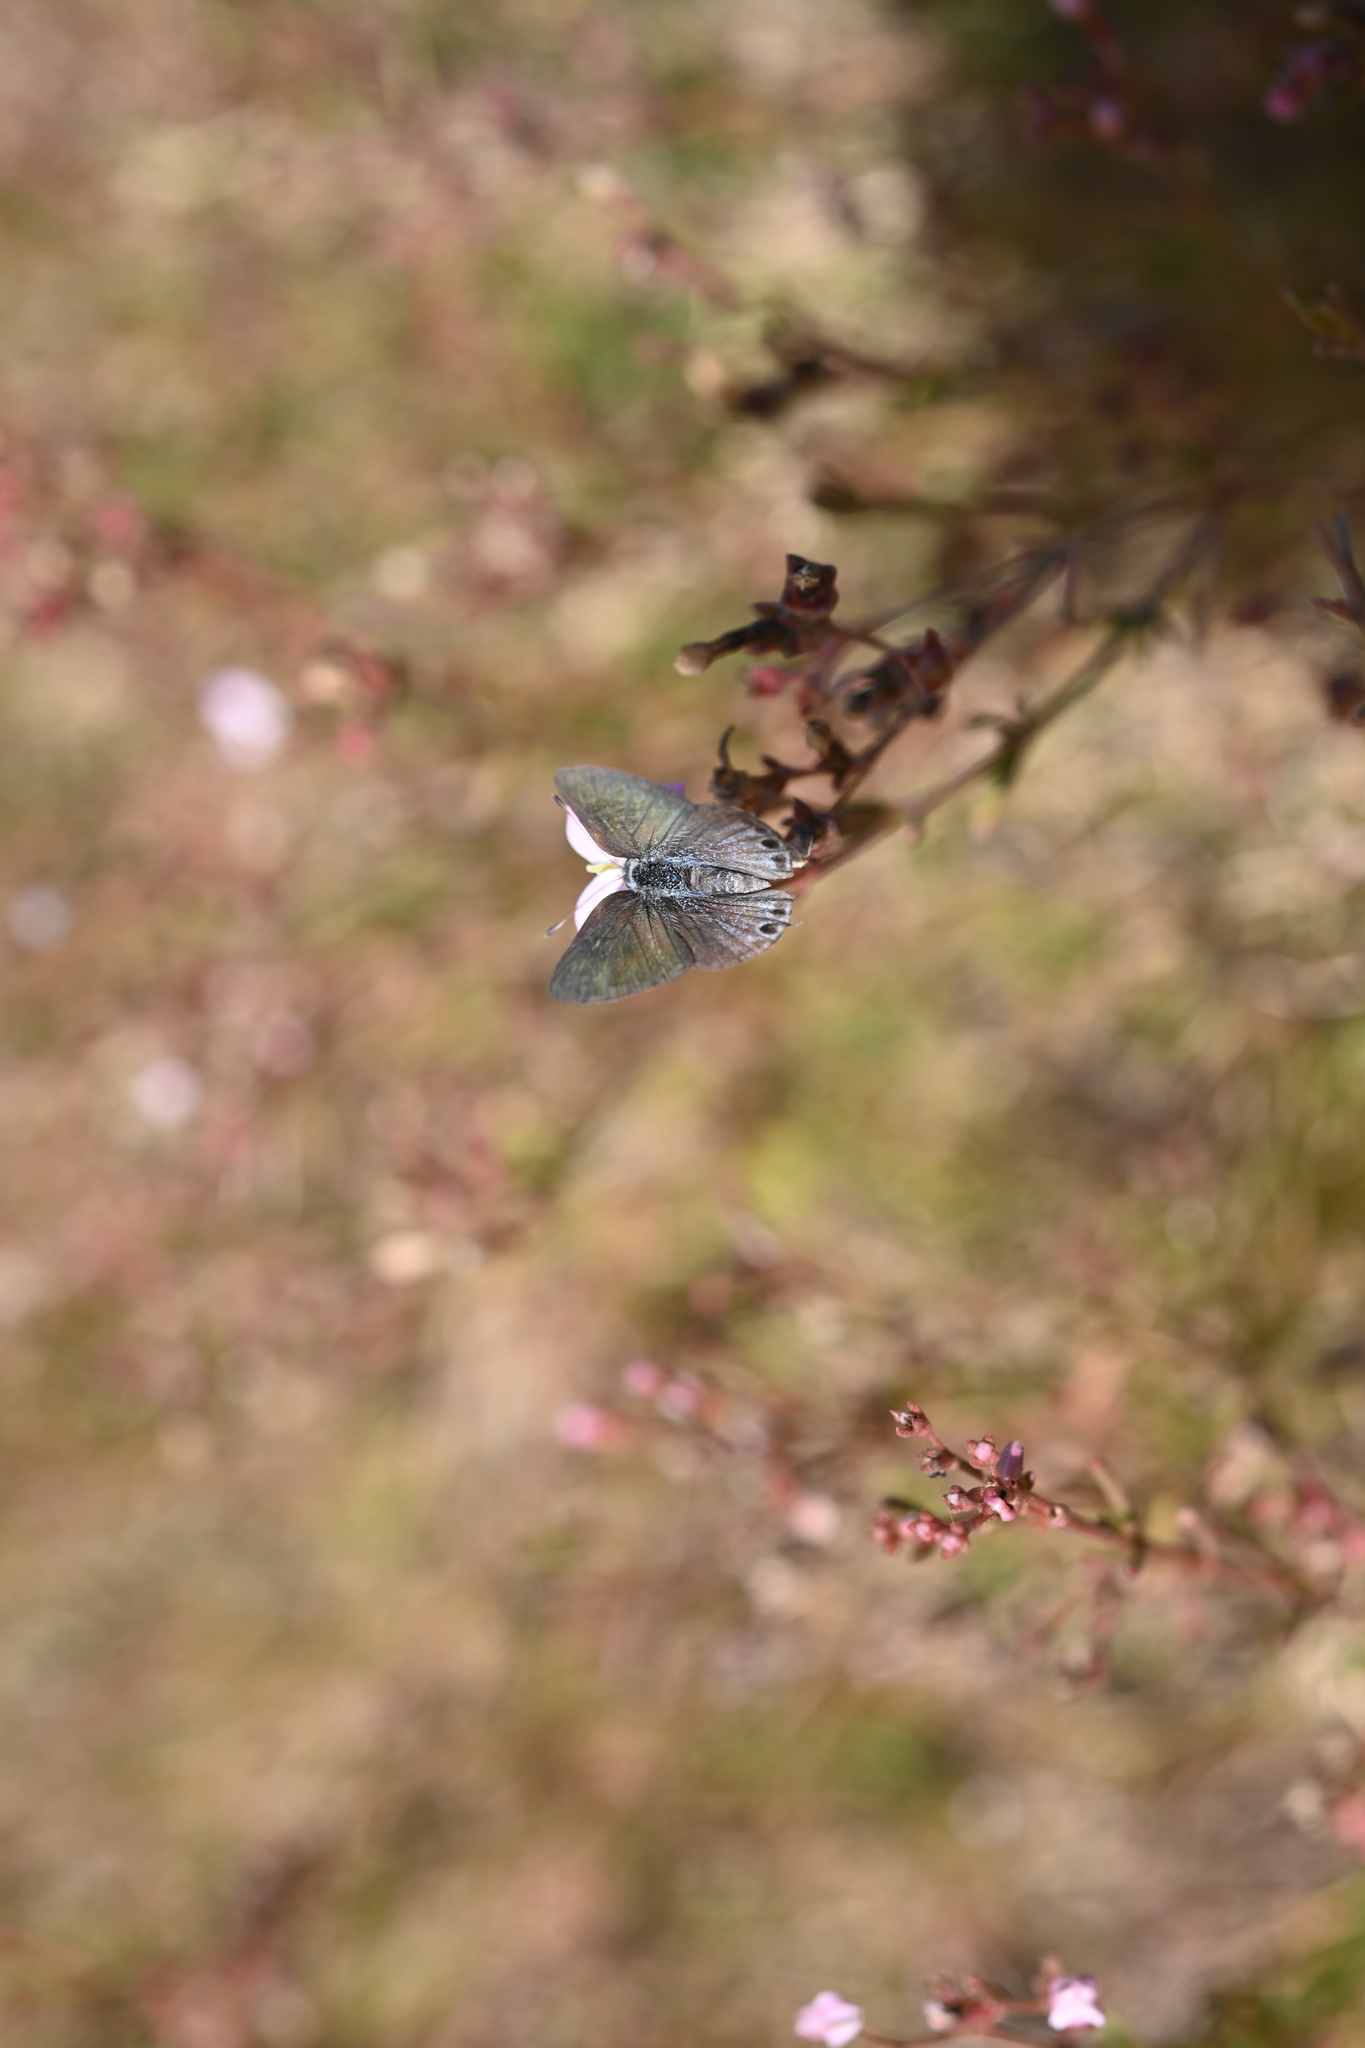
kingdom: Animalia
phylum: Arthropoda
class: Insecta
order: Lepidoptera
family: Lycaenidae
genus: Callicista
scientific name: Callicista columella
